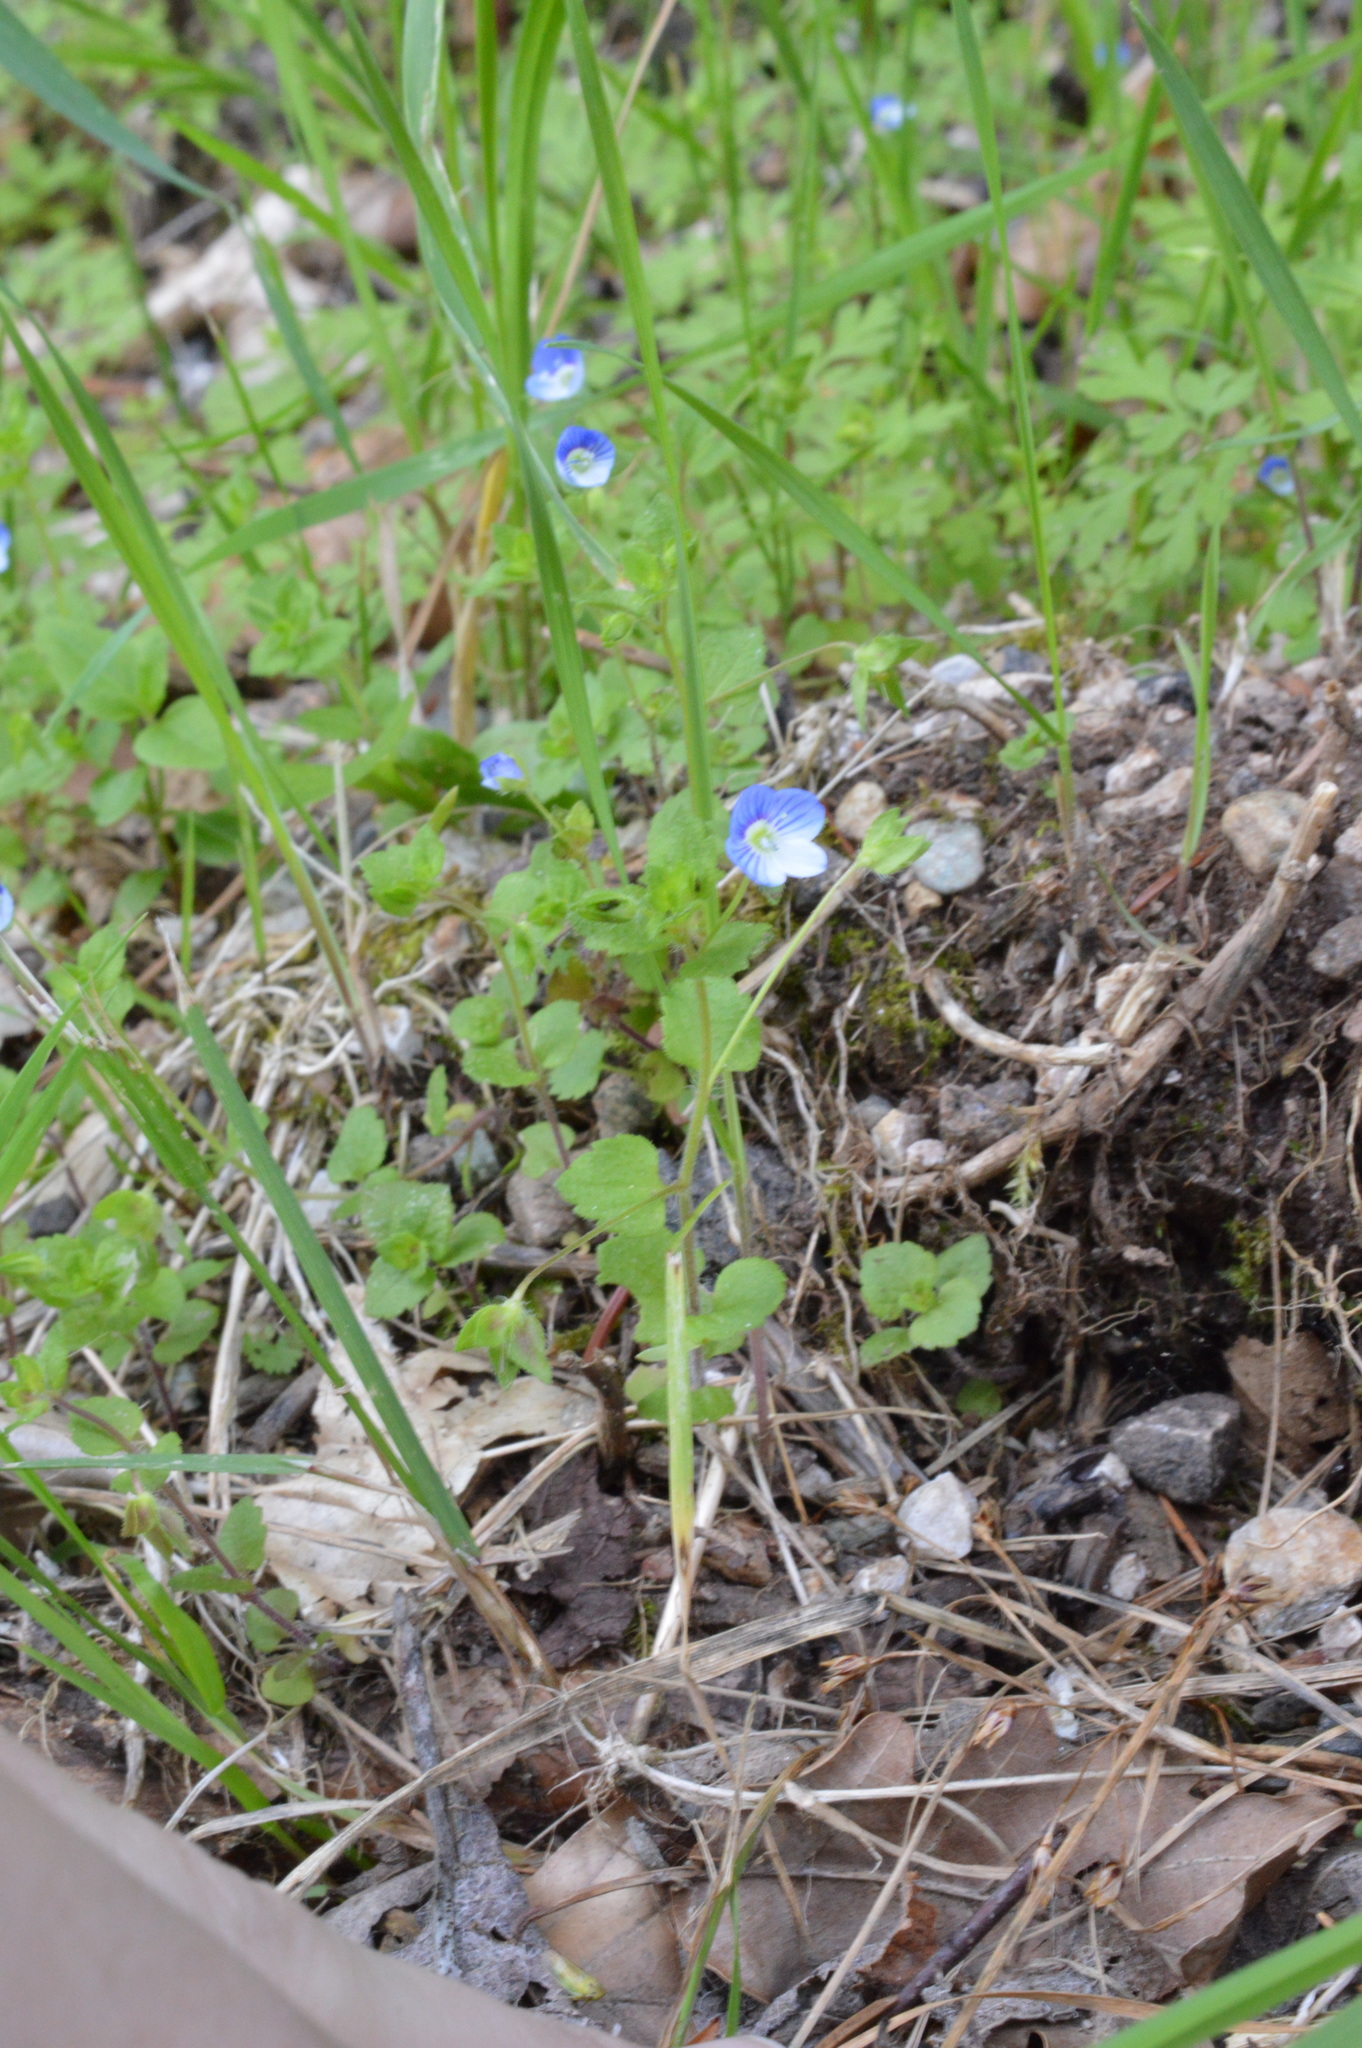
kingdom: Plantae
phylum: Tracheophyta
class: Magnoliopsida
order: Lamiales
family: Plantaginaceae
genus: Veronica
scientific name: Veronica persica
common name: Common field-speedwell
